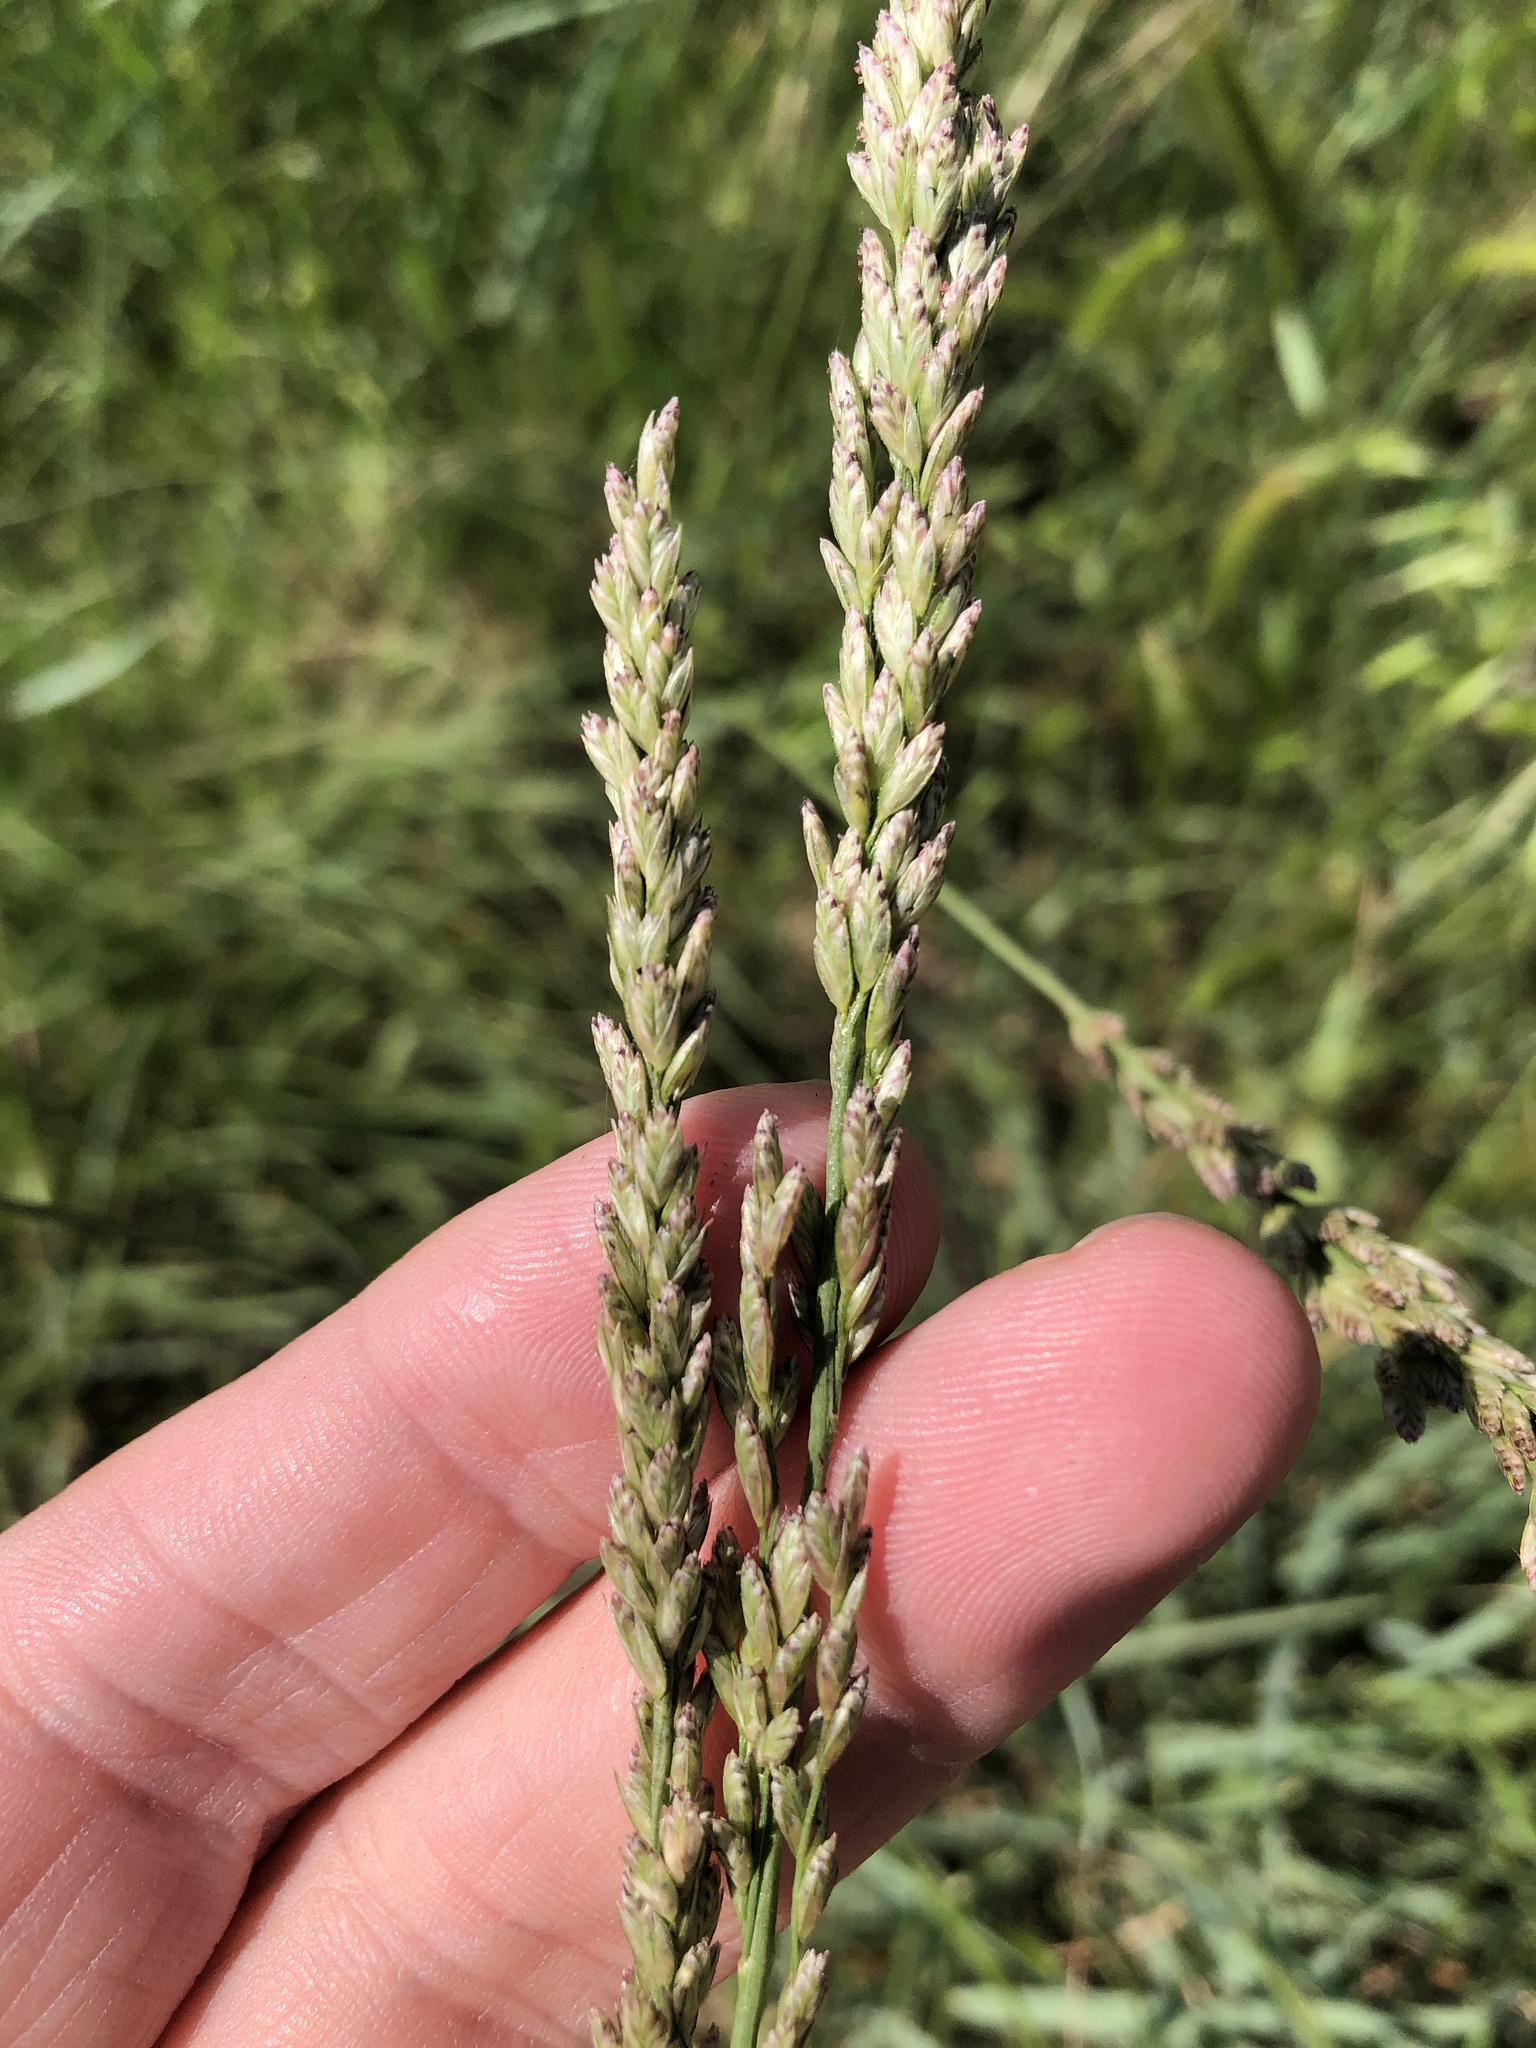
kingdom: Plantae
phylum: Tracheophyta
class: Liliopsida
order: Poales
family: Poaceae
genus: Tridens
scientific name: Tridens albescens
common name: White tridens
